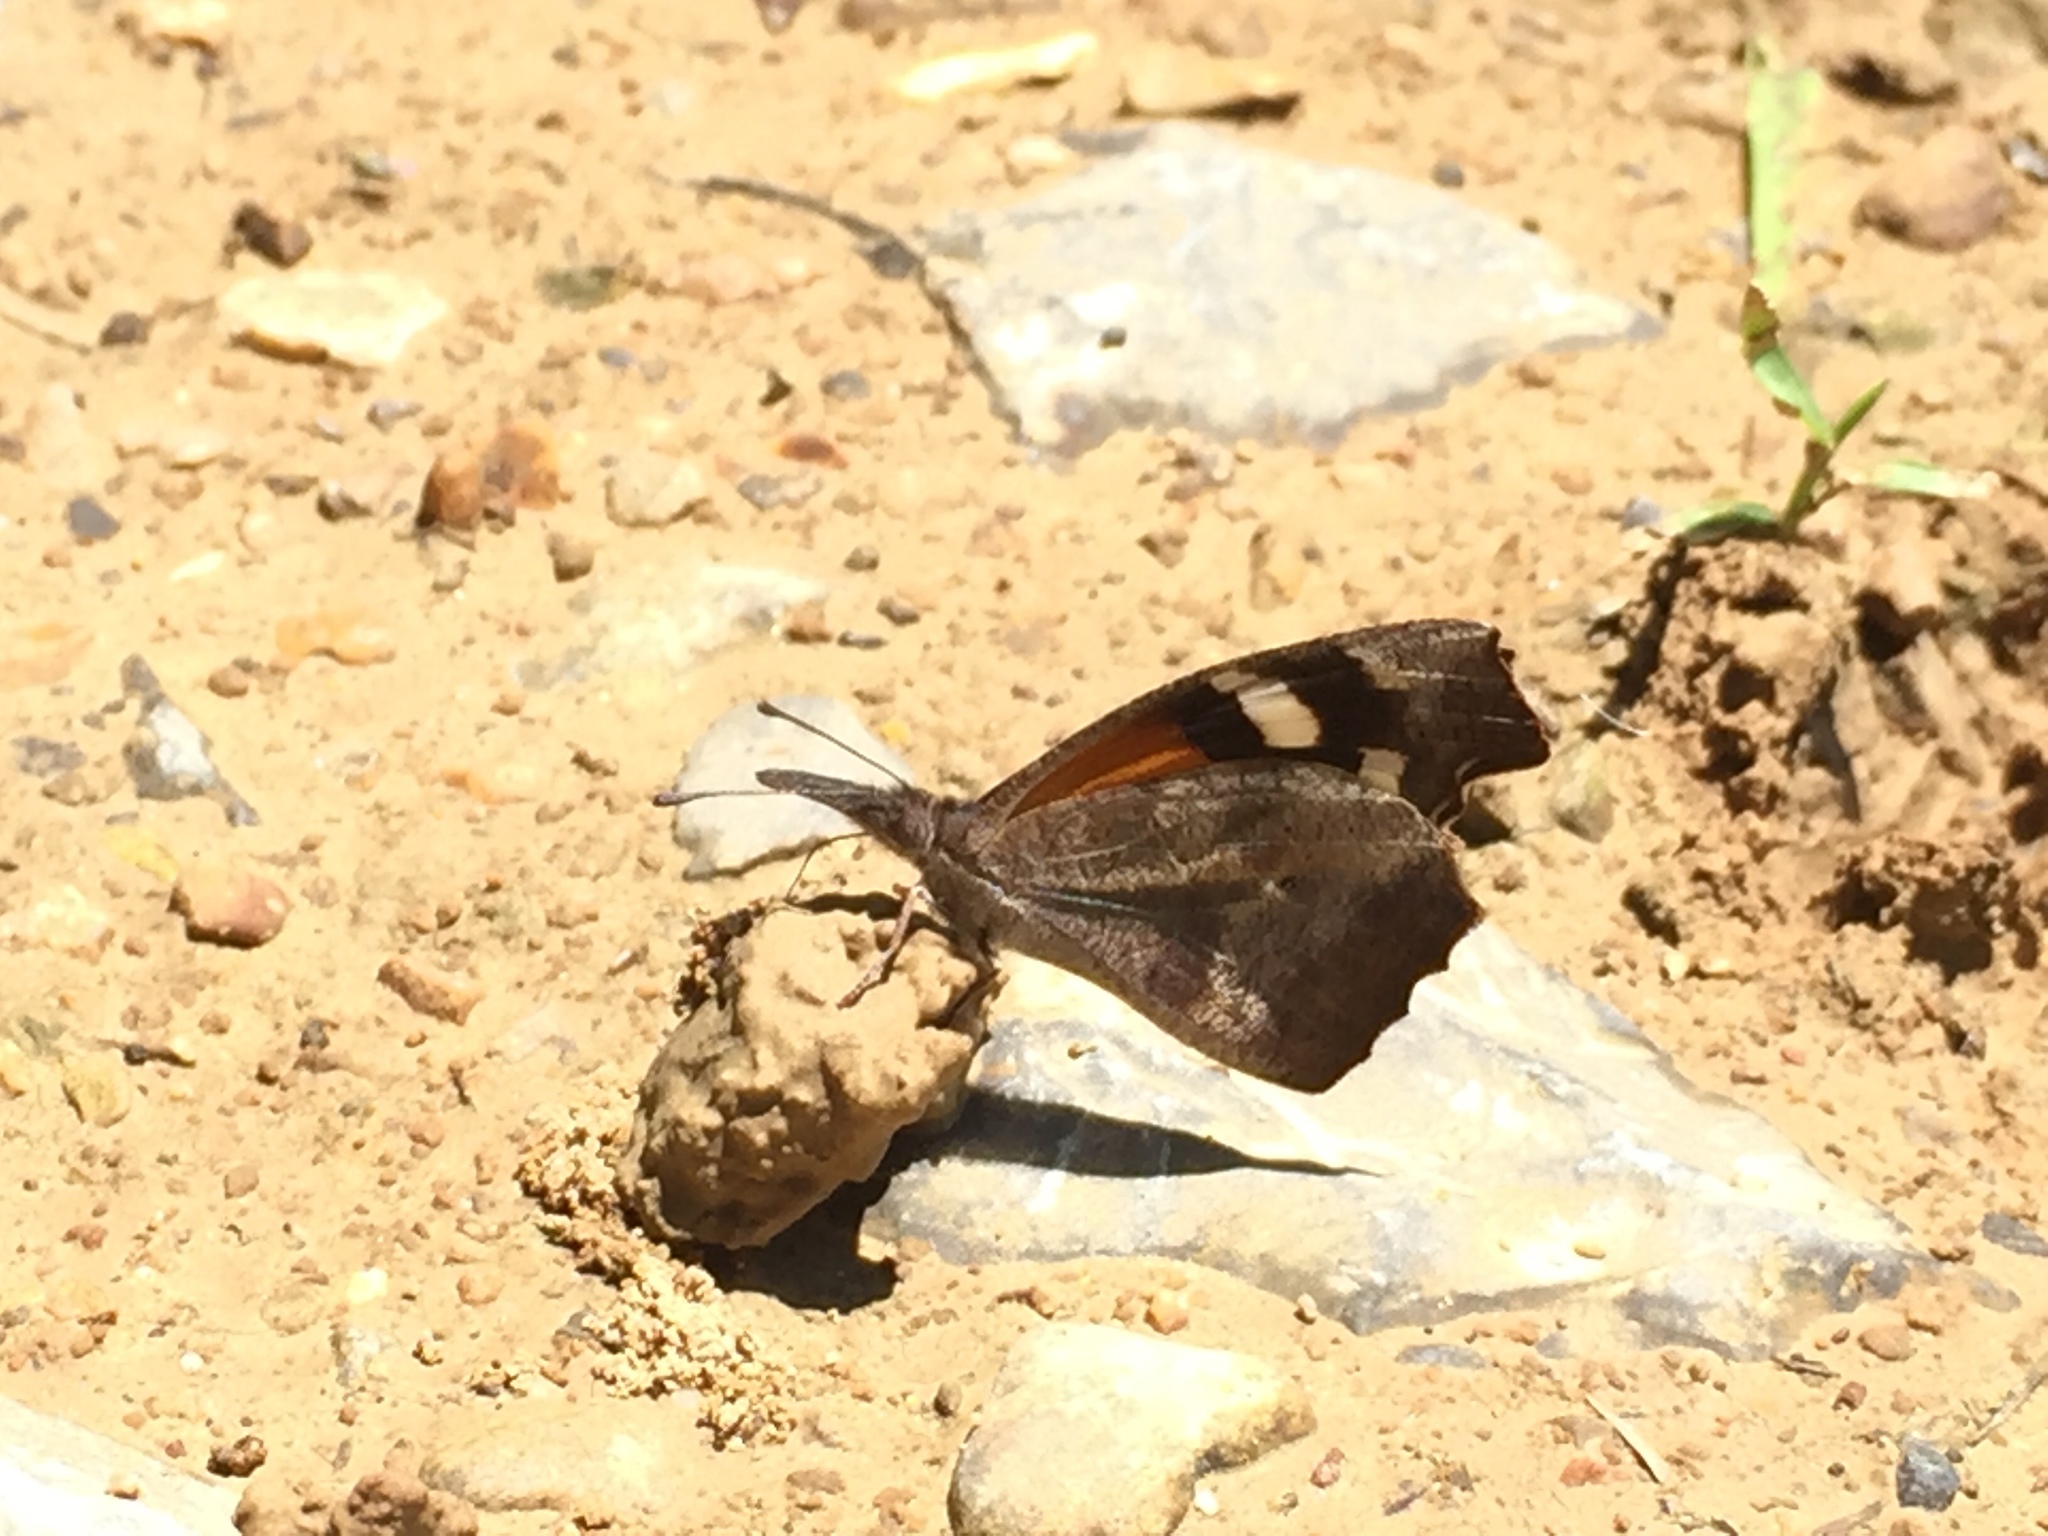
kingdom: Animalia
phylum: Arthropoda
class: Insecta
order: Lepidoptera
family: Nymphalidae
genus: Libytheana
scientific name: Libytheana carinenta
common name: American snout
